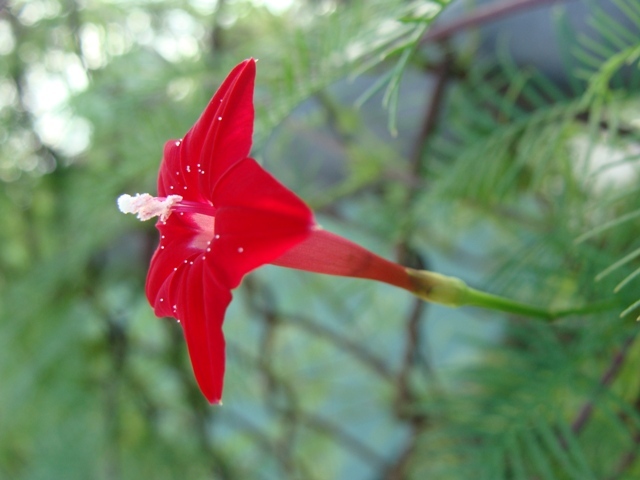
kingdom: Plantae
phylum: Tracheophyta
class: Magnoliopsida
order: Solanales
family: Convolvulaceae
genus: Ipomoea
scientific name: Ipomoea quamoclit
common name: Cypress vine
